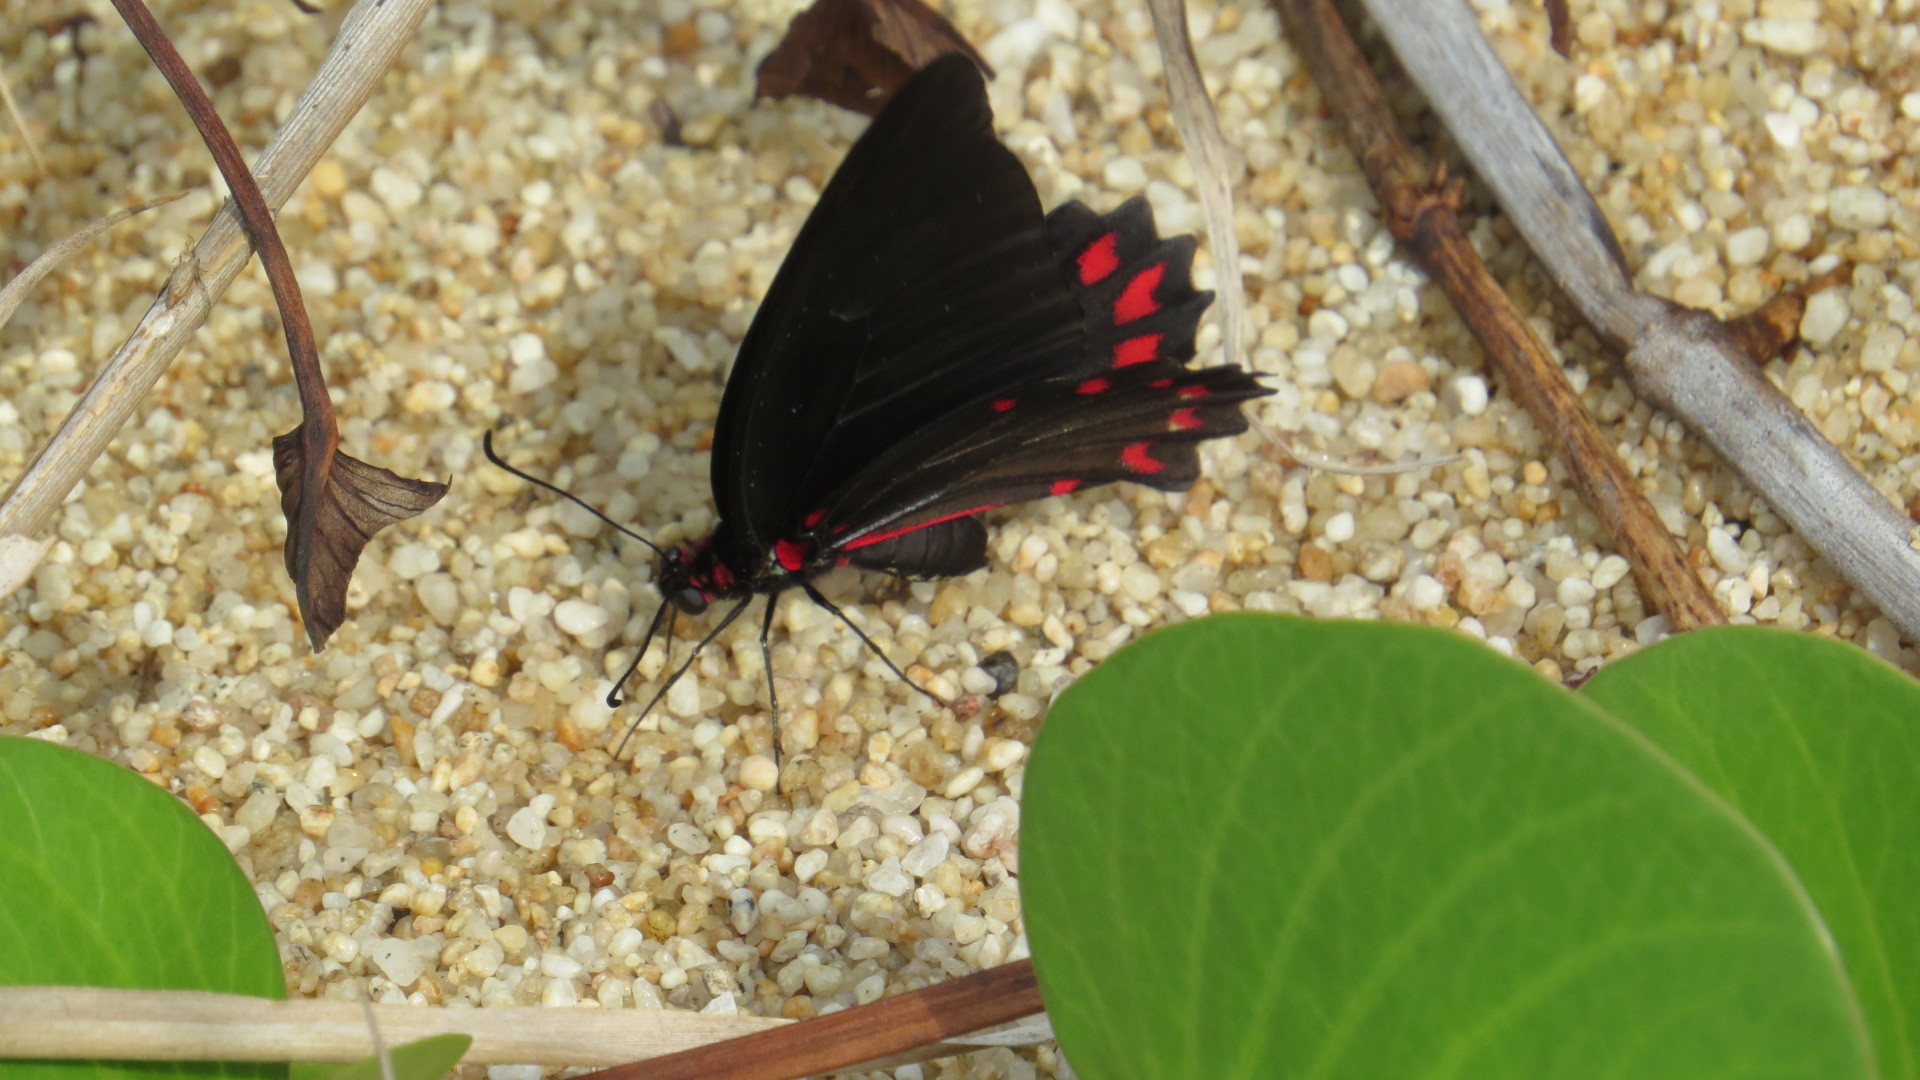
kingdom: Animalia
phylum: Arthropoda
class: Insecta
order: Lepidoptera
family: Papilionidae
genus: Mimoides
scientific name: Mimoides ilus
